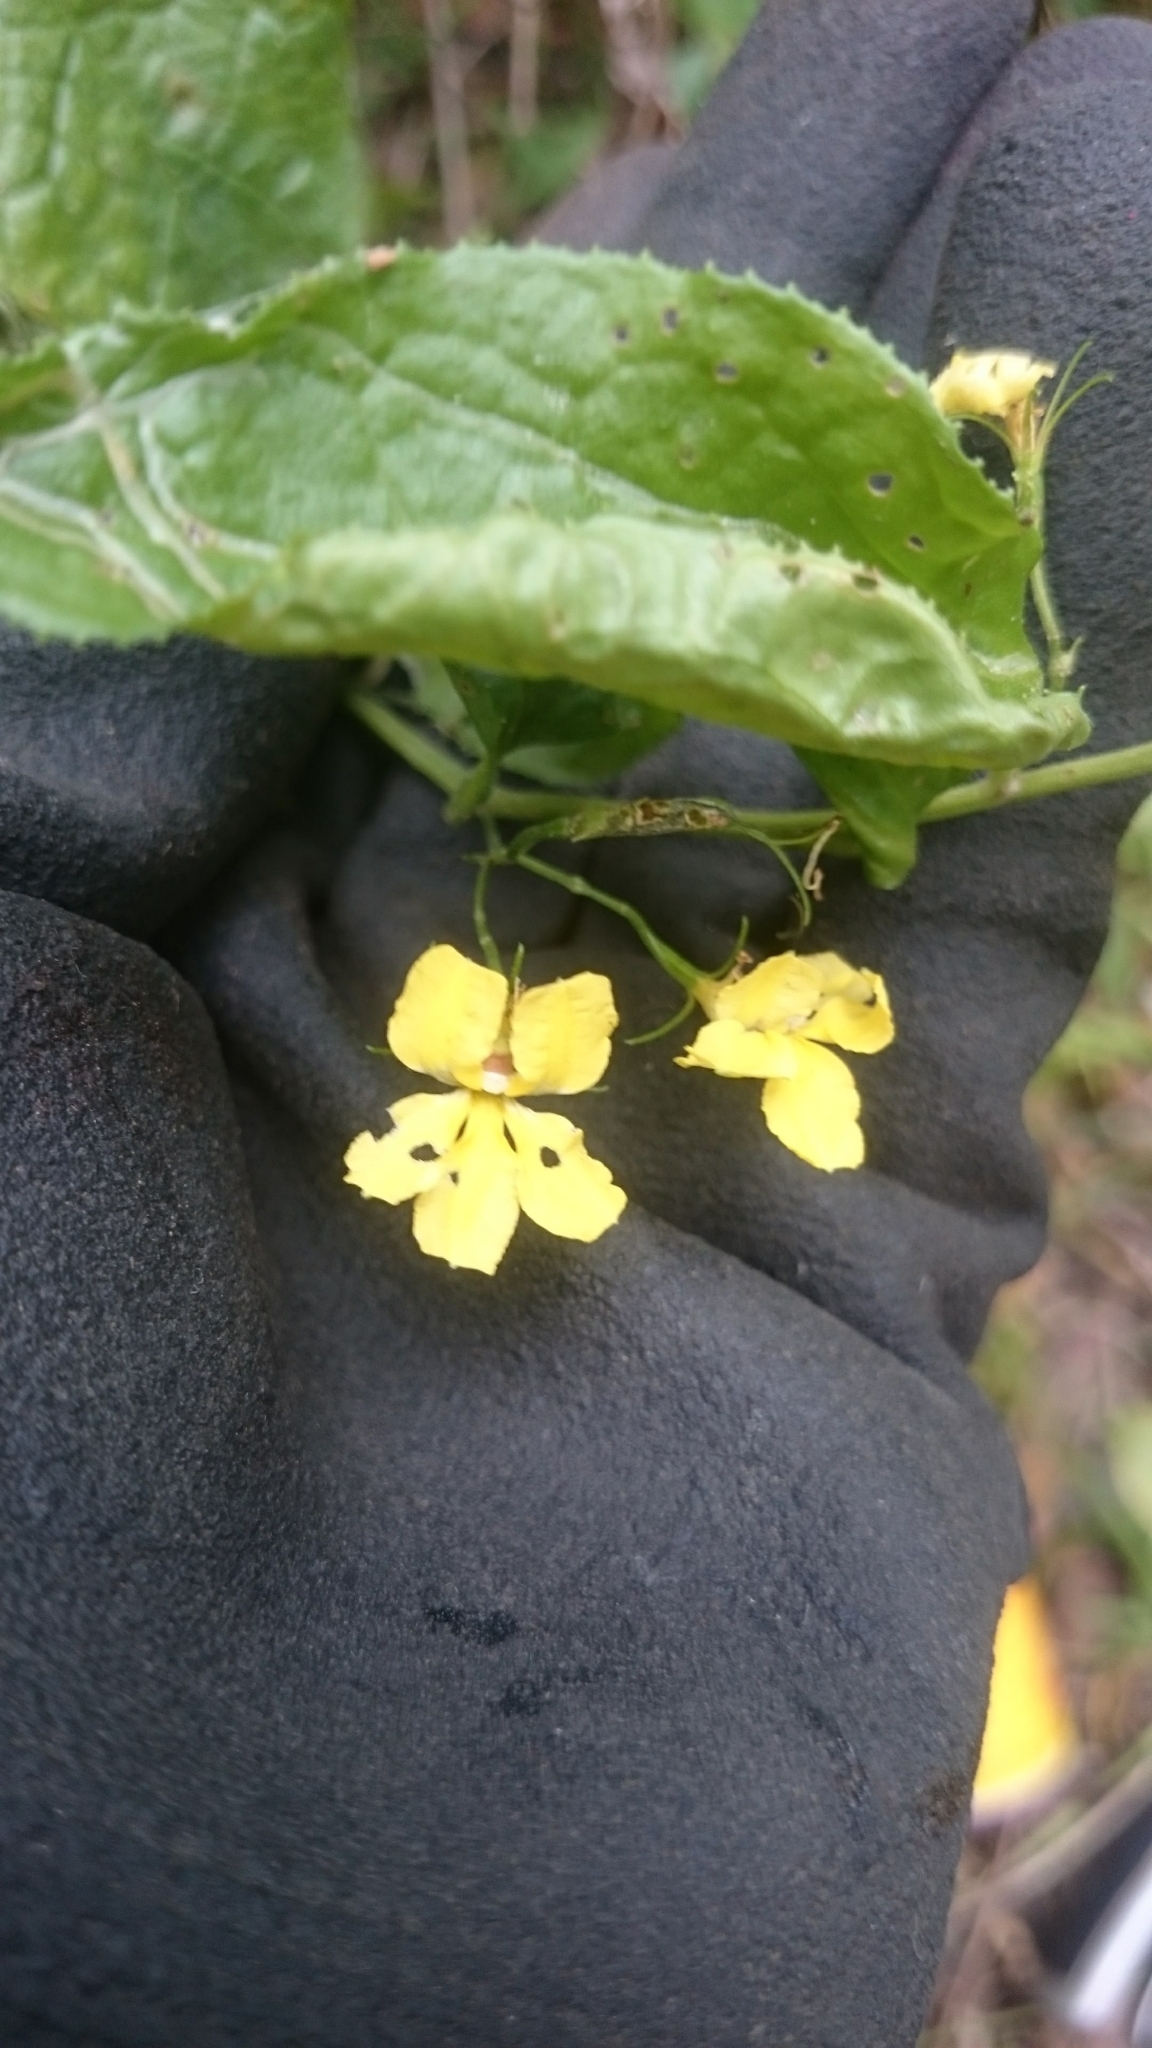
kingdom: Plantae
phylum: Tracheophyta
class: Magnoliopsida
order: Asterales
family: Goodeniaceae
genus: Goodenia
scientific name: Goodenia ovata
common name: Hop goodenia
